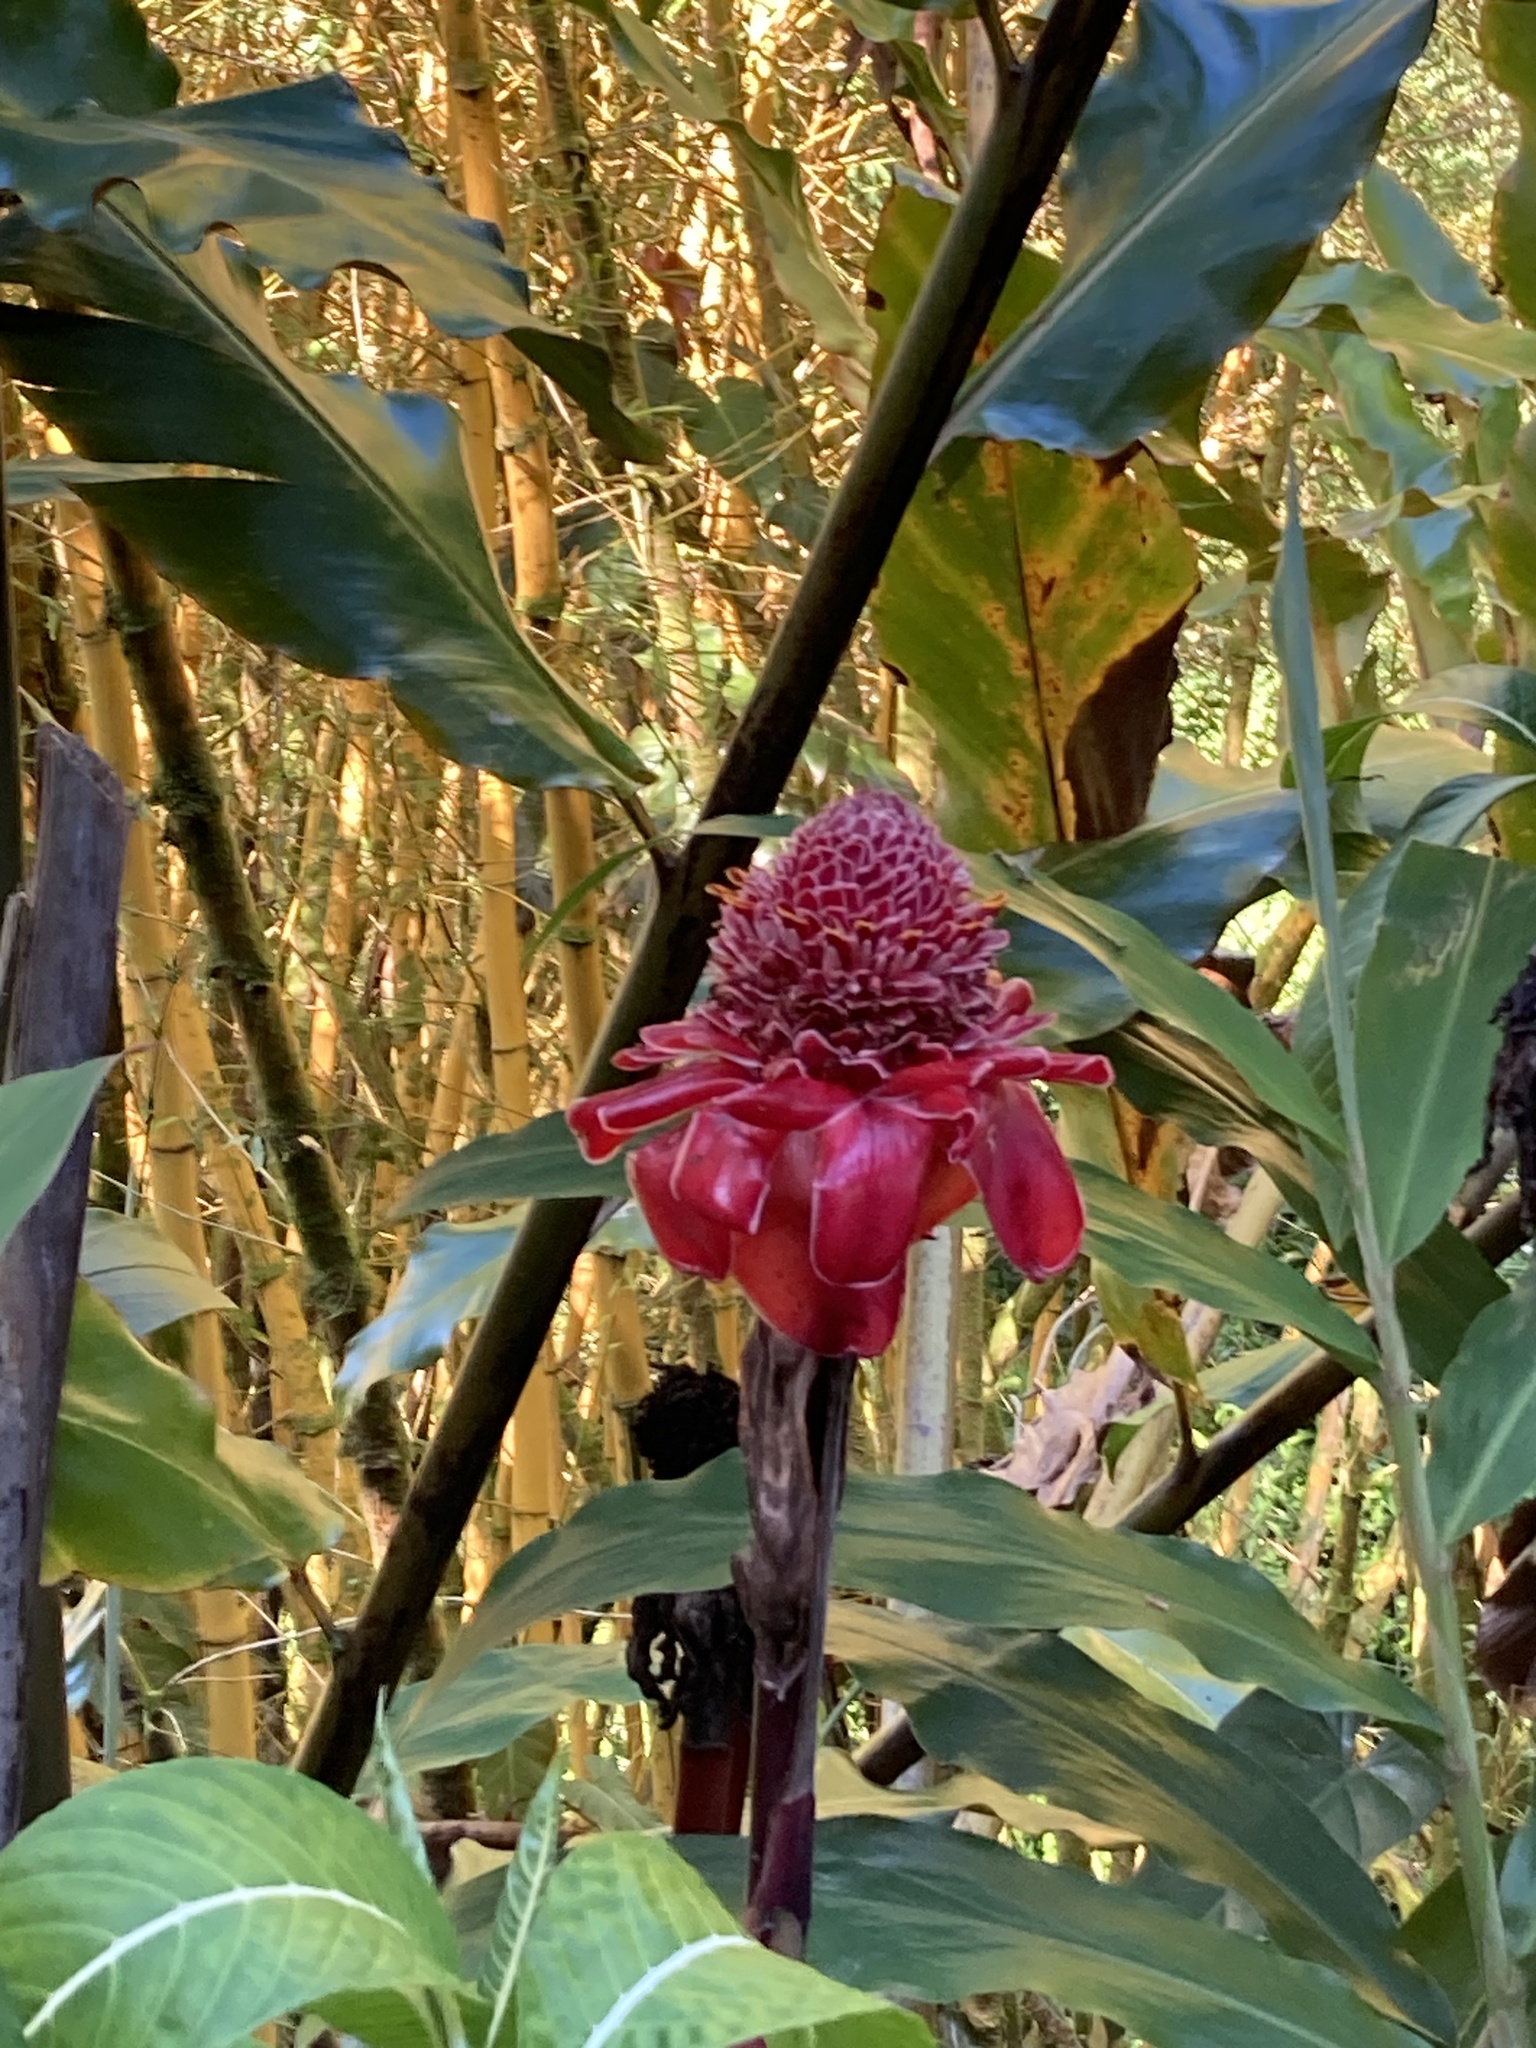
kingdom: Plantae
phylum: Tracheophyta
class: Liliopsida
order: Zingiberales
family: Zingiberaceae
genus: Etlingera
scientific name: Etlingera elatior
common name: Philippine waxflower
